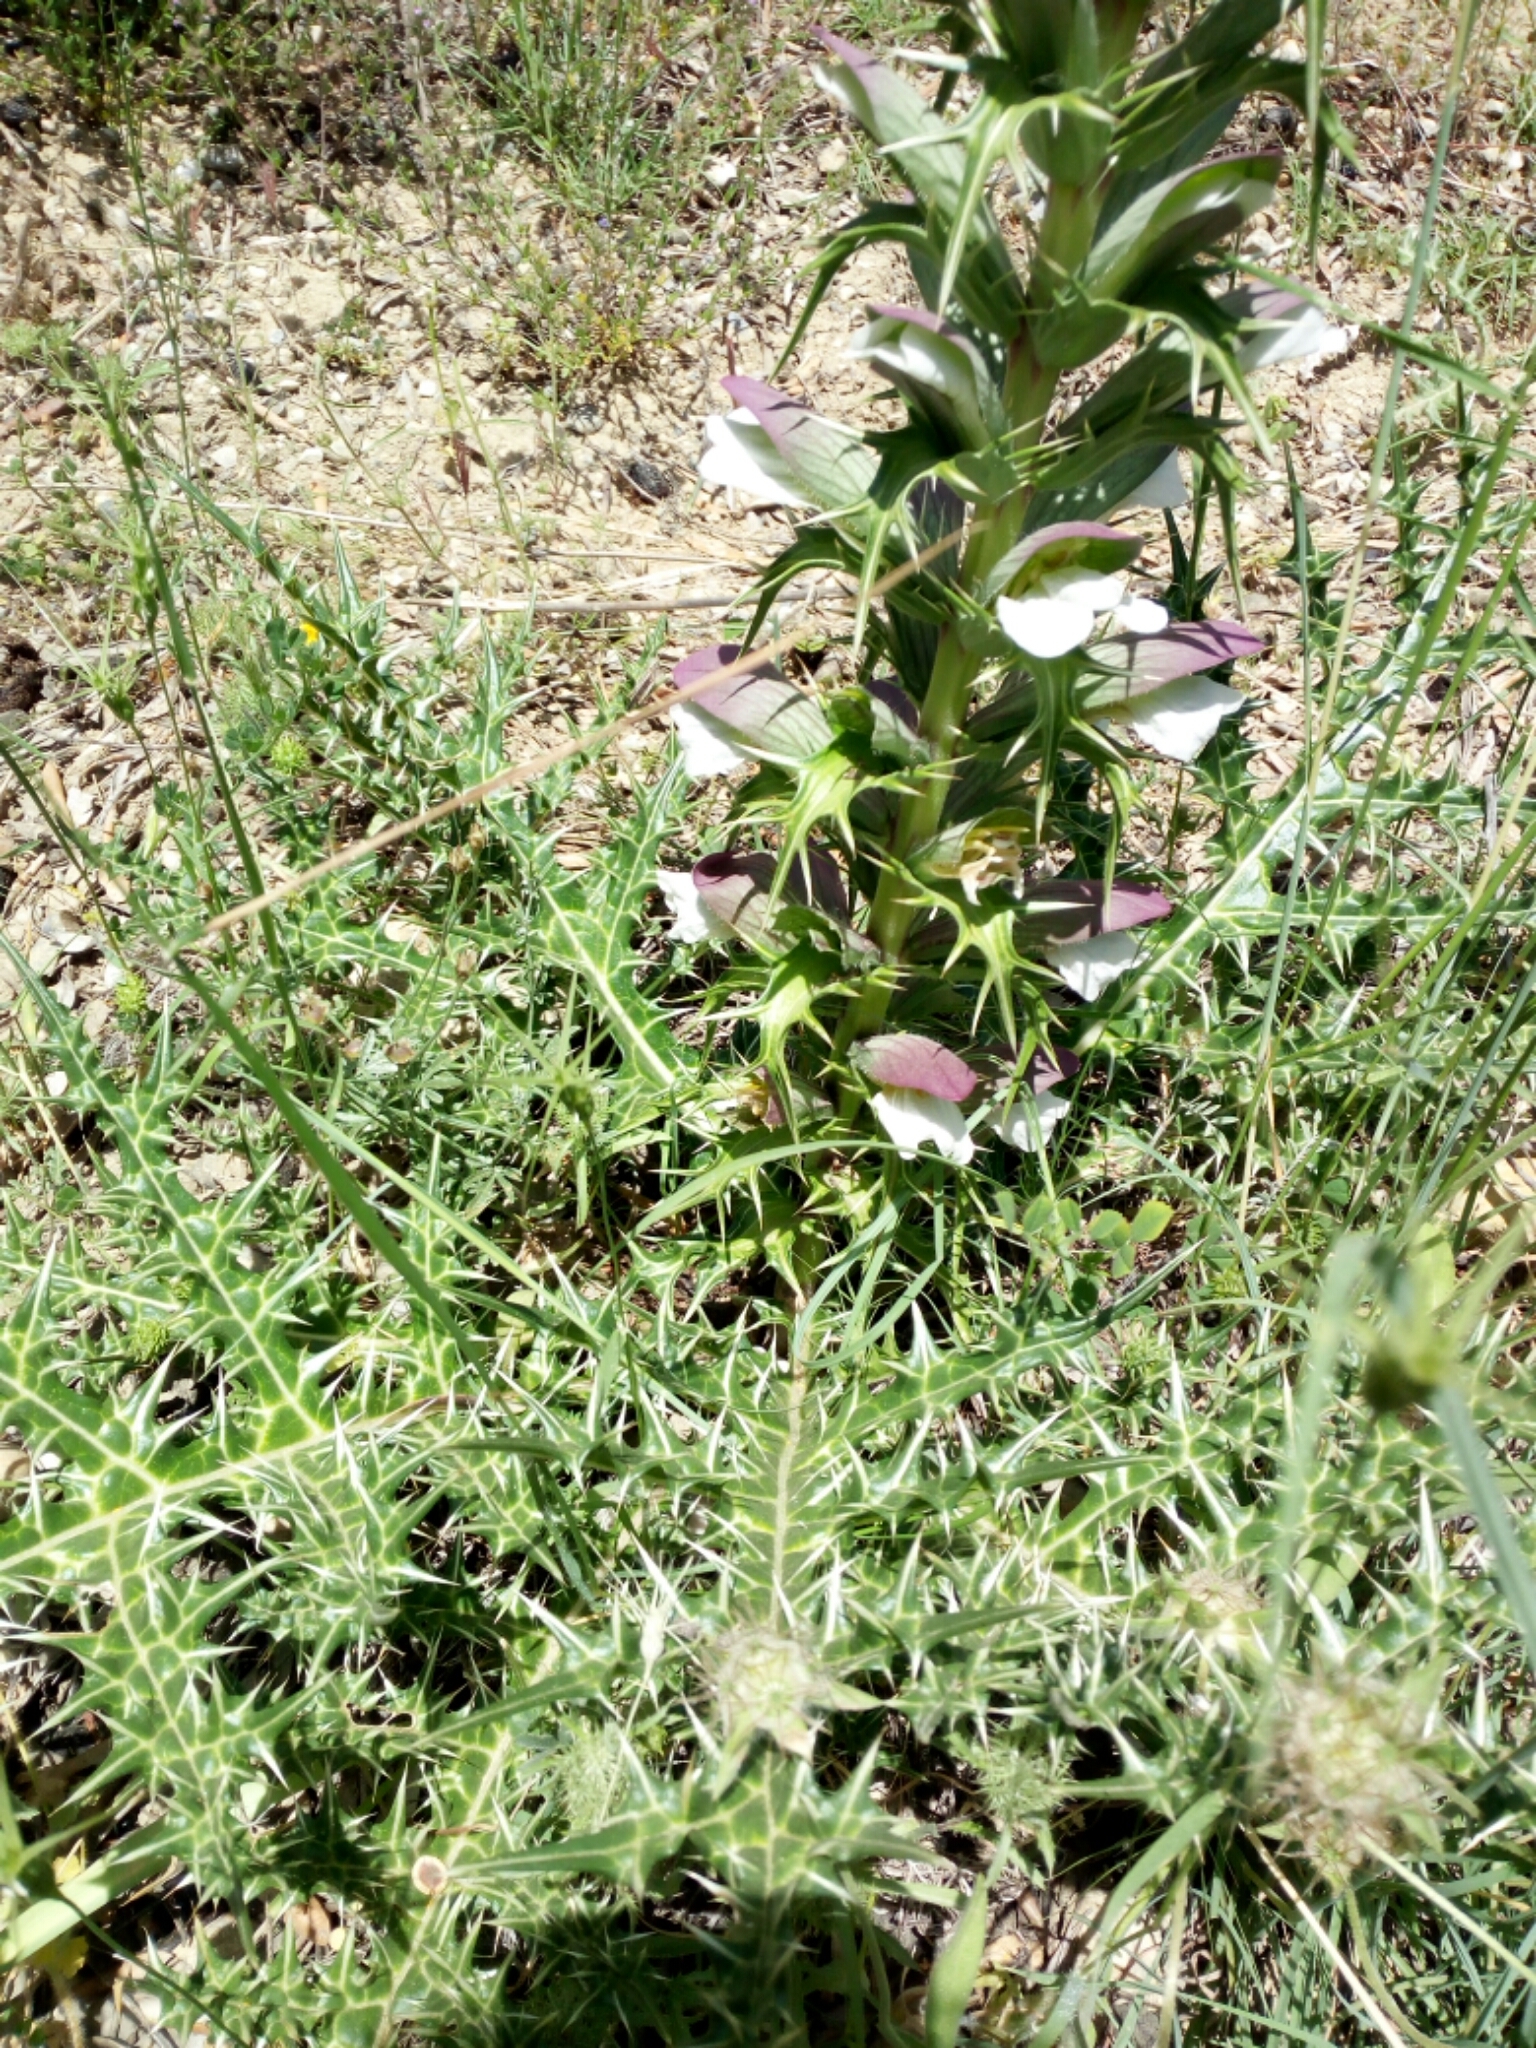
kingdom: Plantae
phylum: Tracheophyta
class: Magnoliopsida
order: Lamiales
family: Acanthaceae
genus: Acanthus
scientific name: Acanthus spinosus
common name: Spiny bear's-breech
